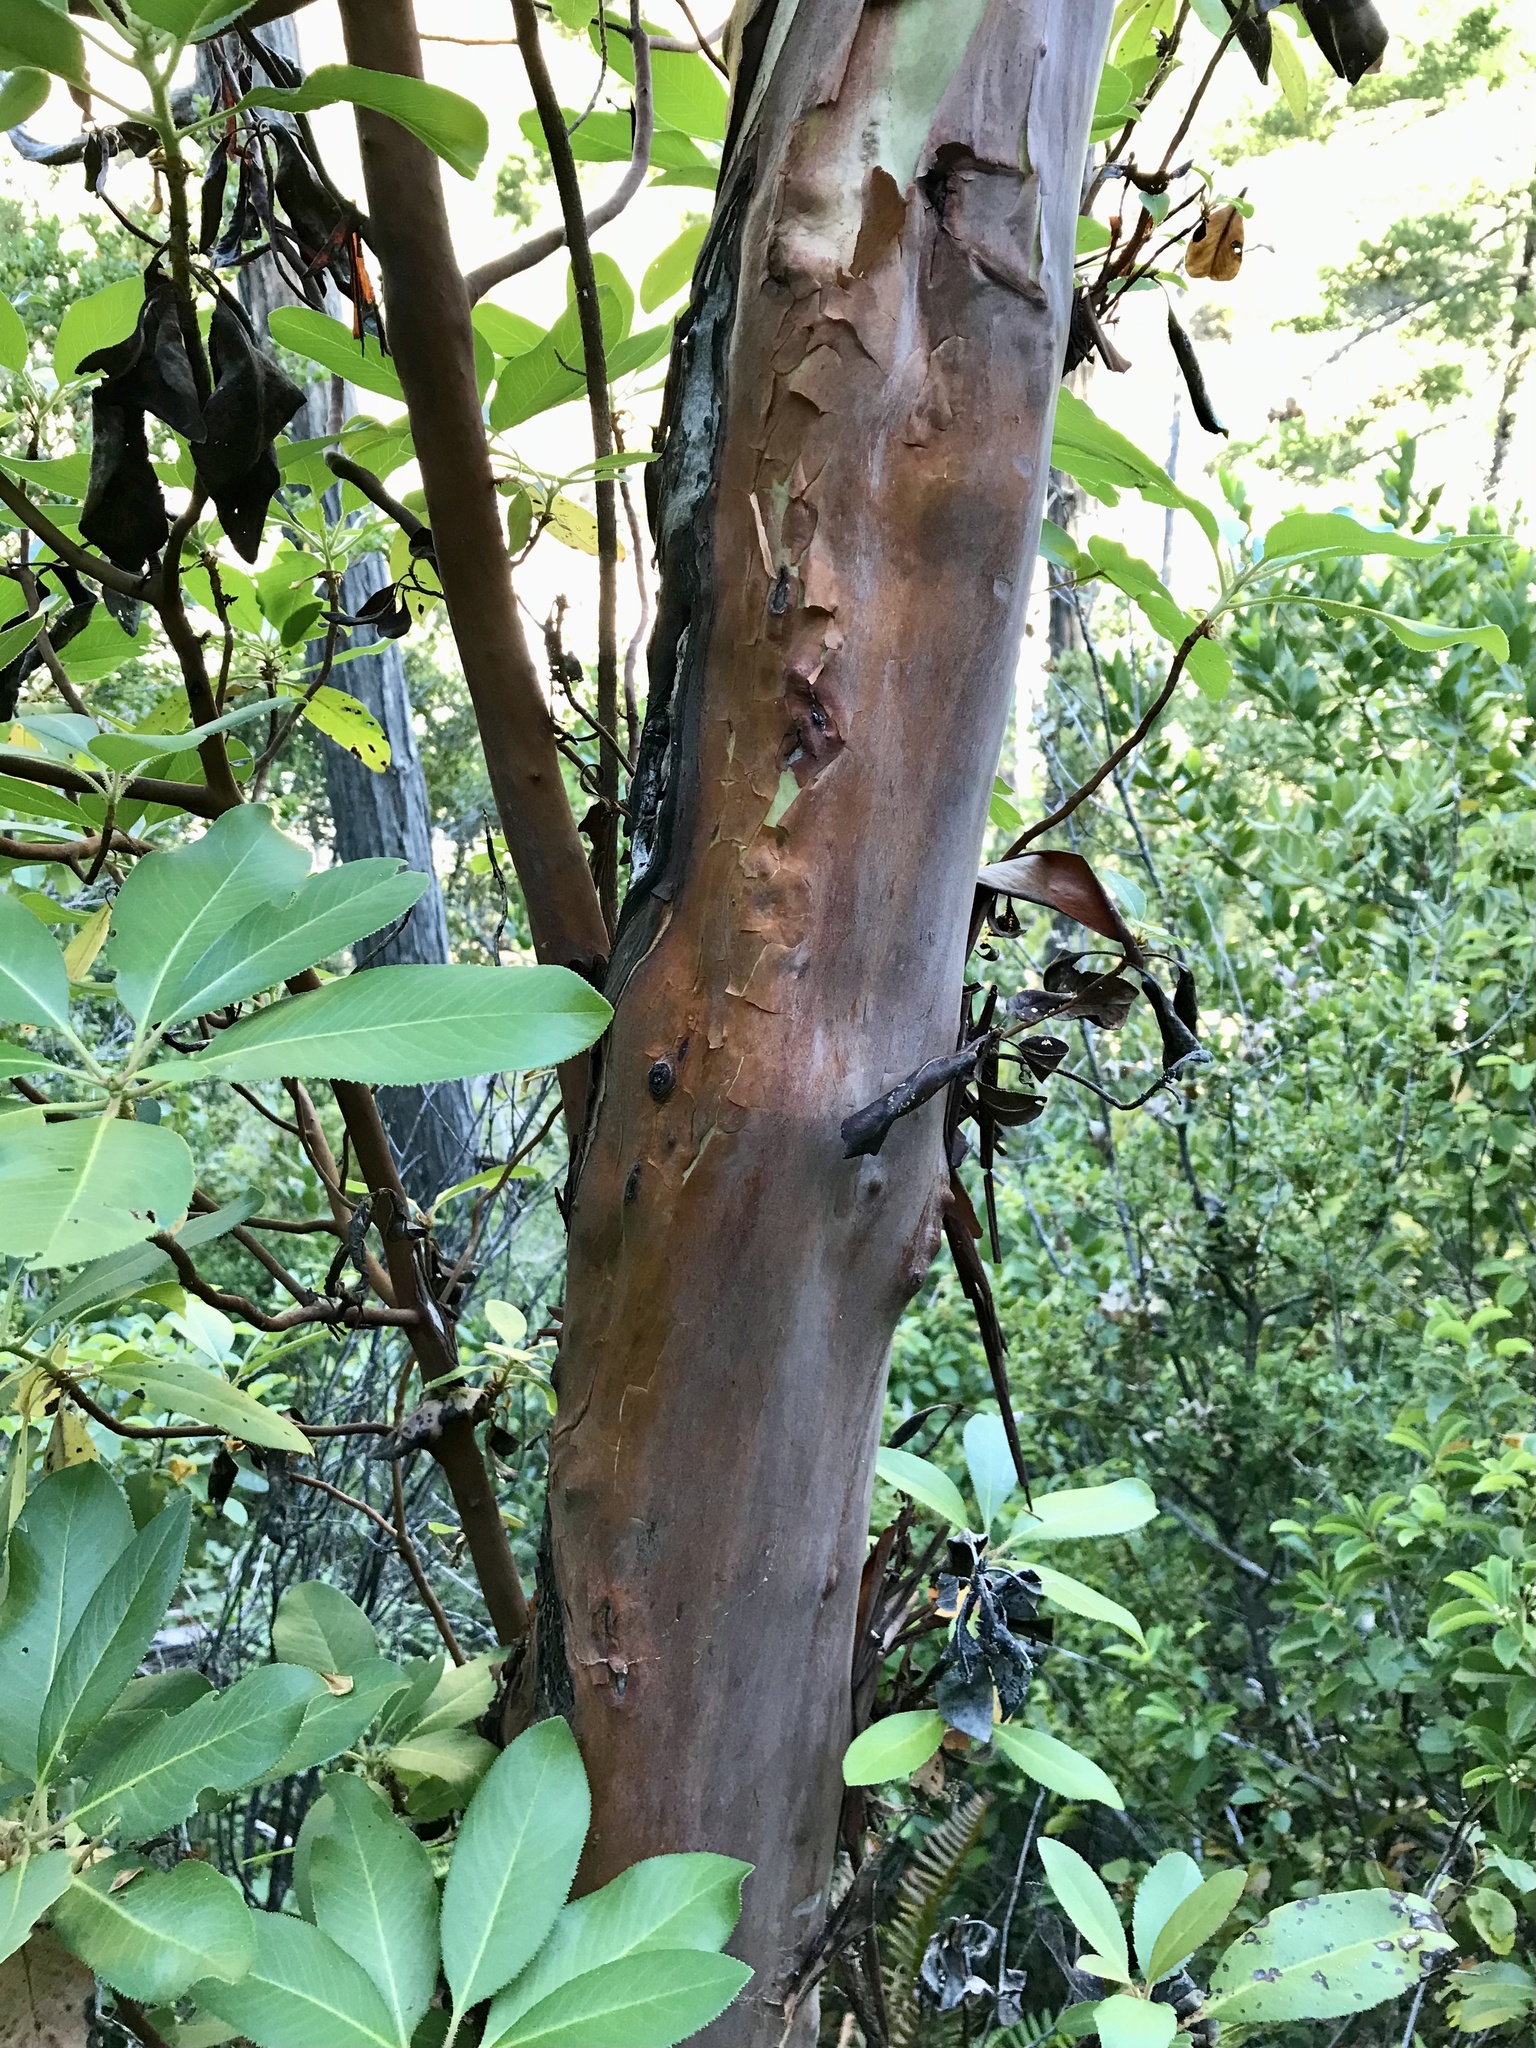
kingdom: Plantae
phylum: Tracheophyta
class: Magnoliopsida
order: Ericales
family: Ericaceae
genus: Arbutus
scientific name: Arbutus menziesii
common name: Pacific madrone
